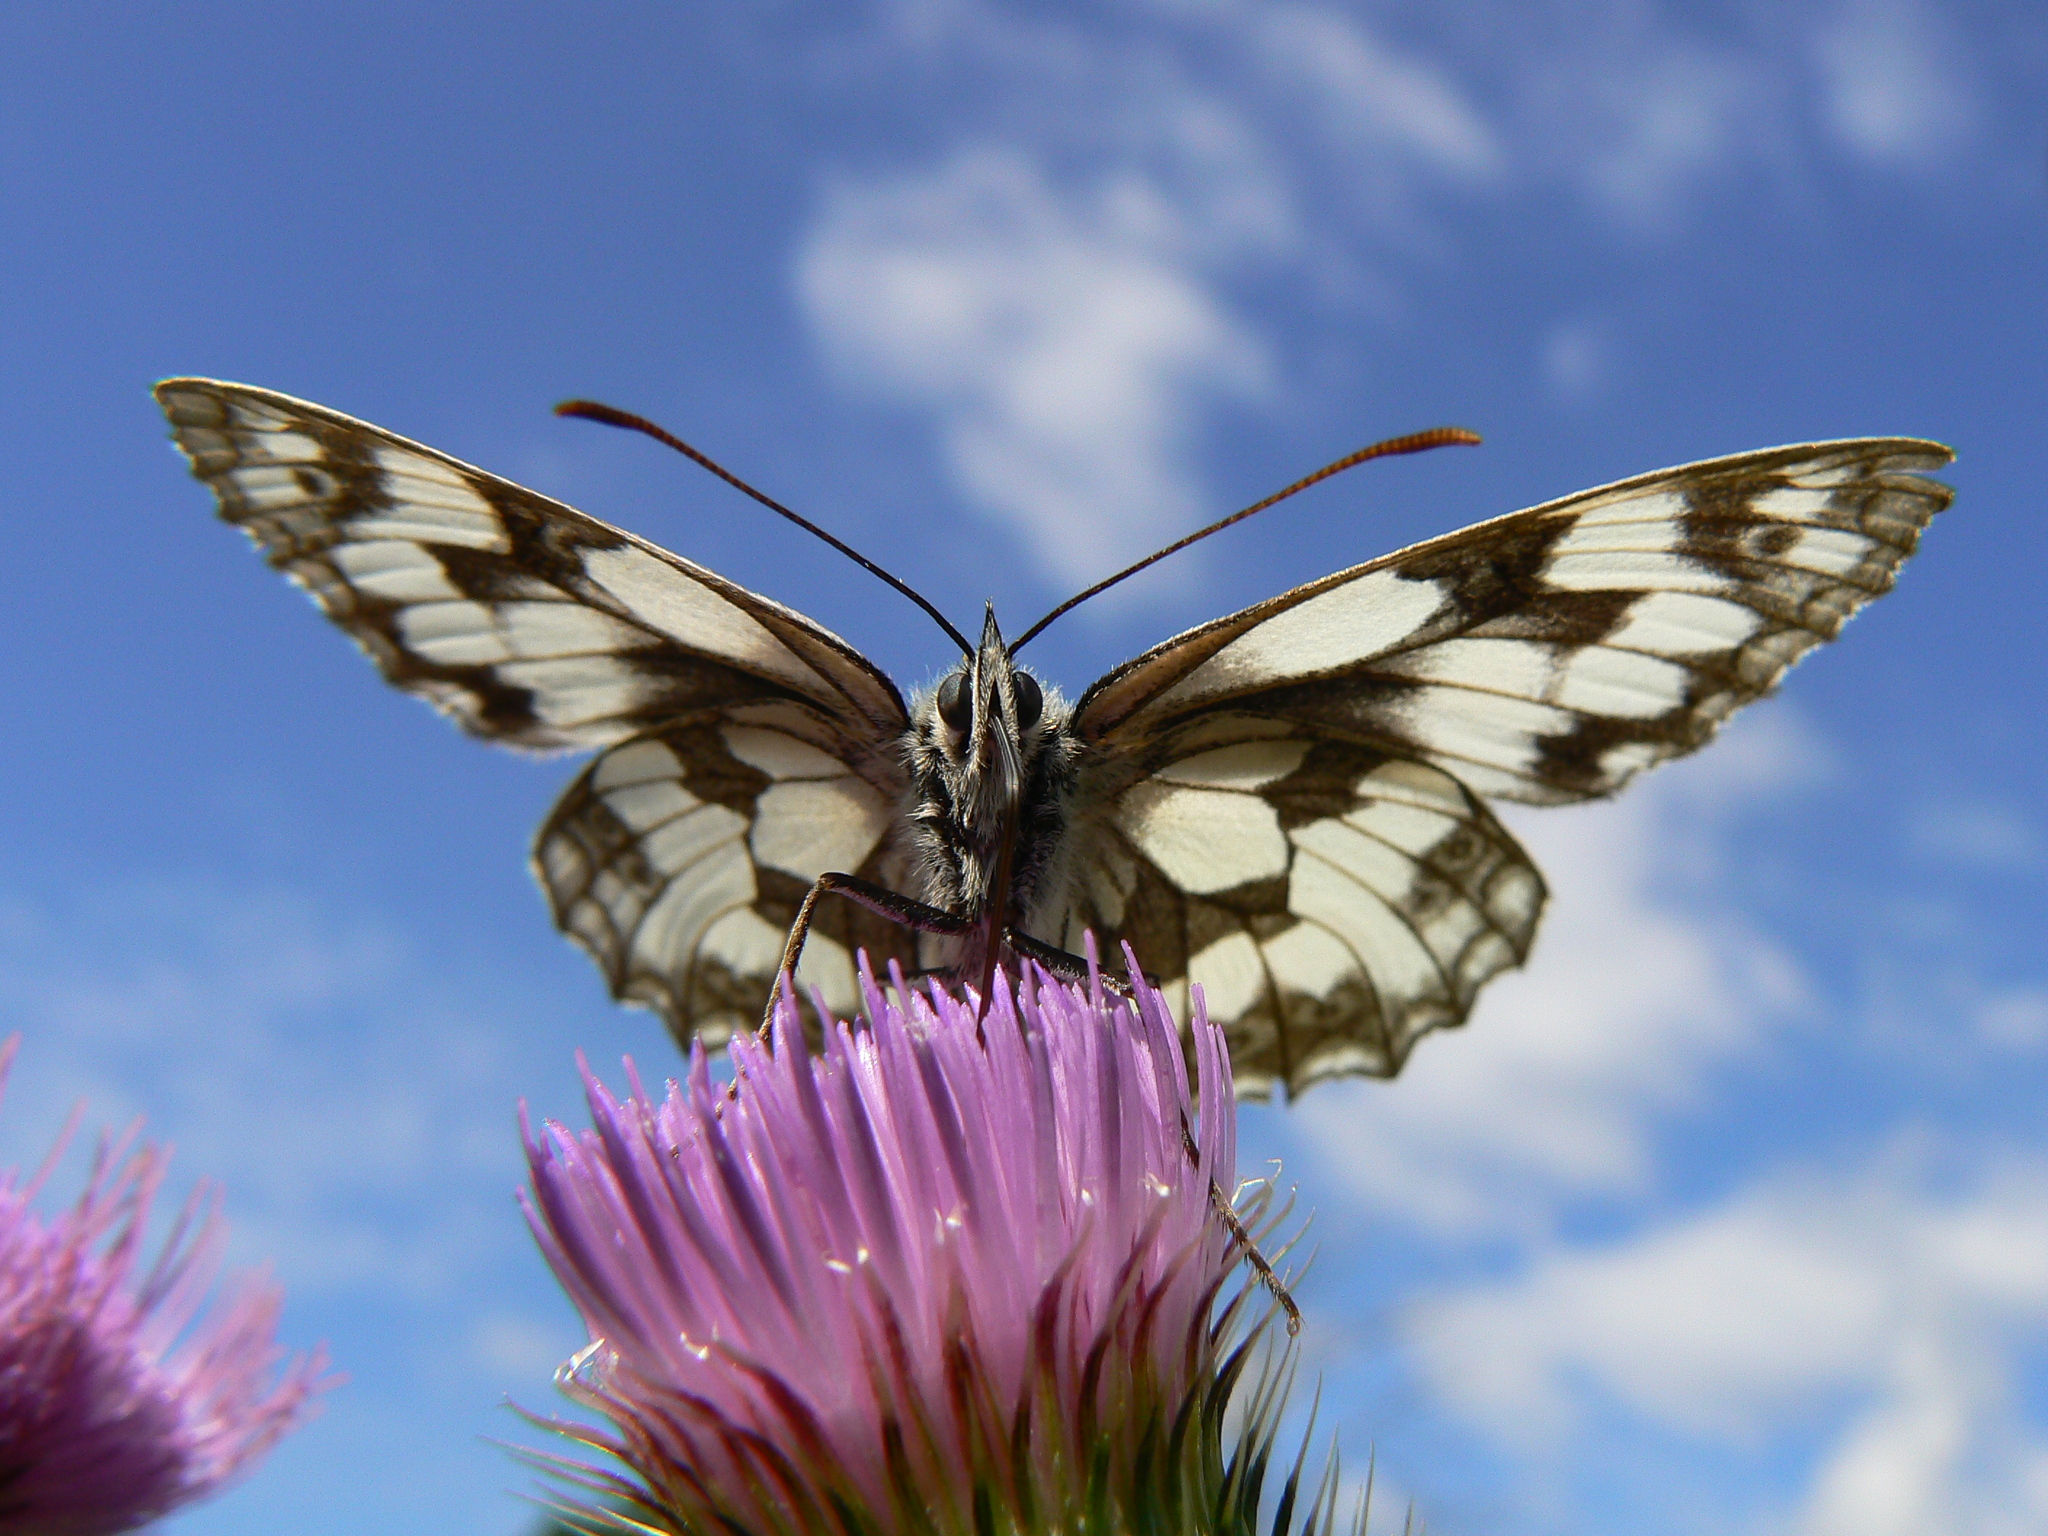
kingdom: Animalia
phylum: Arthropoda
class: Insecta
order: Lepidoptera
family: Nymphalidae
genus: Melanargia
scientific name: Melanargia galathea
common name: Marbled white
